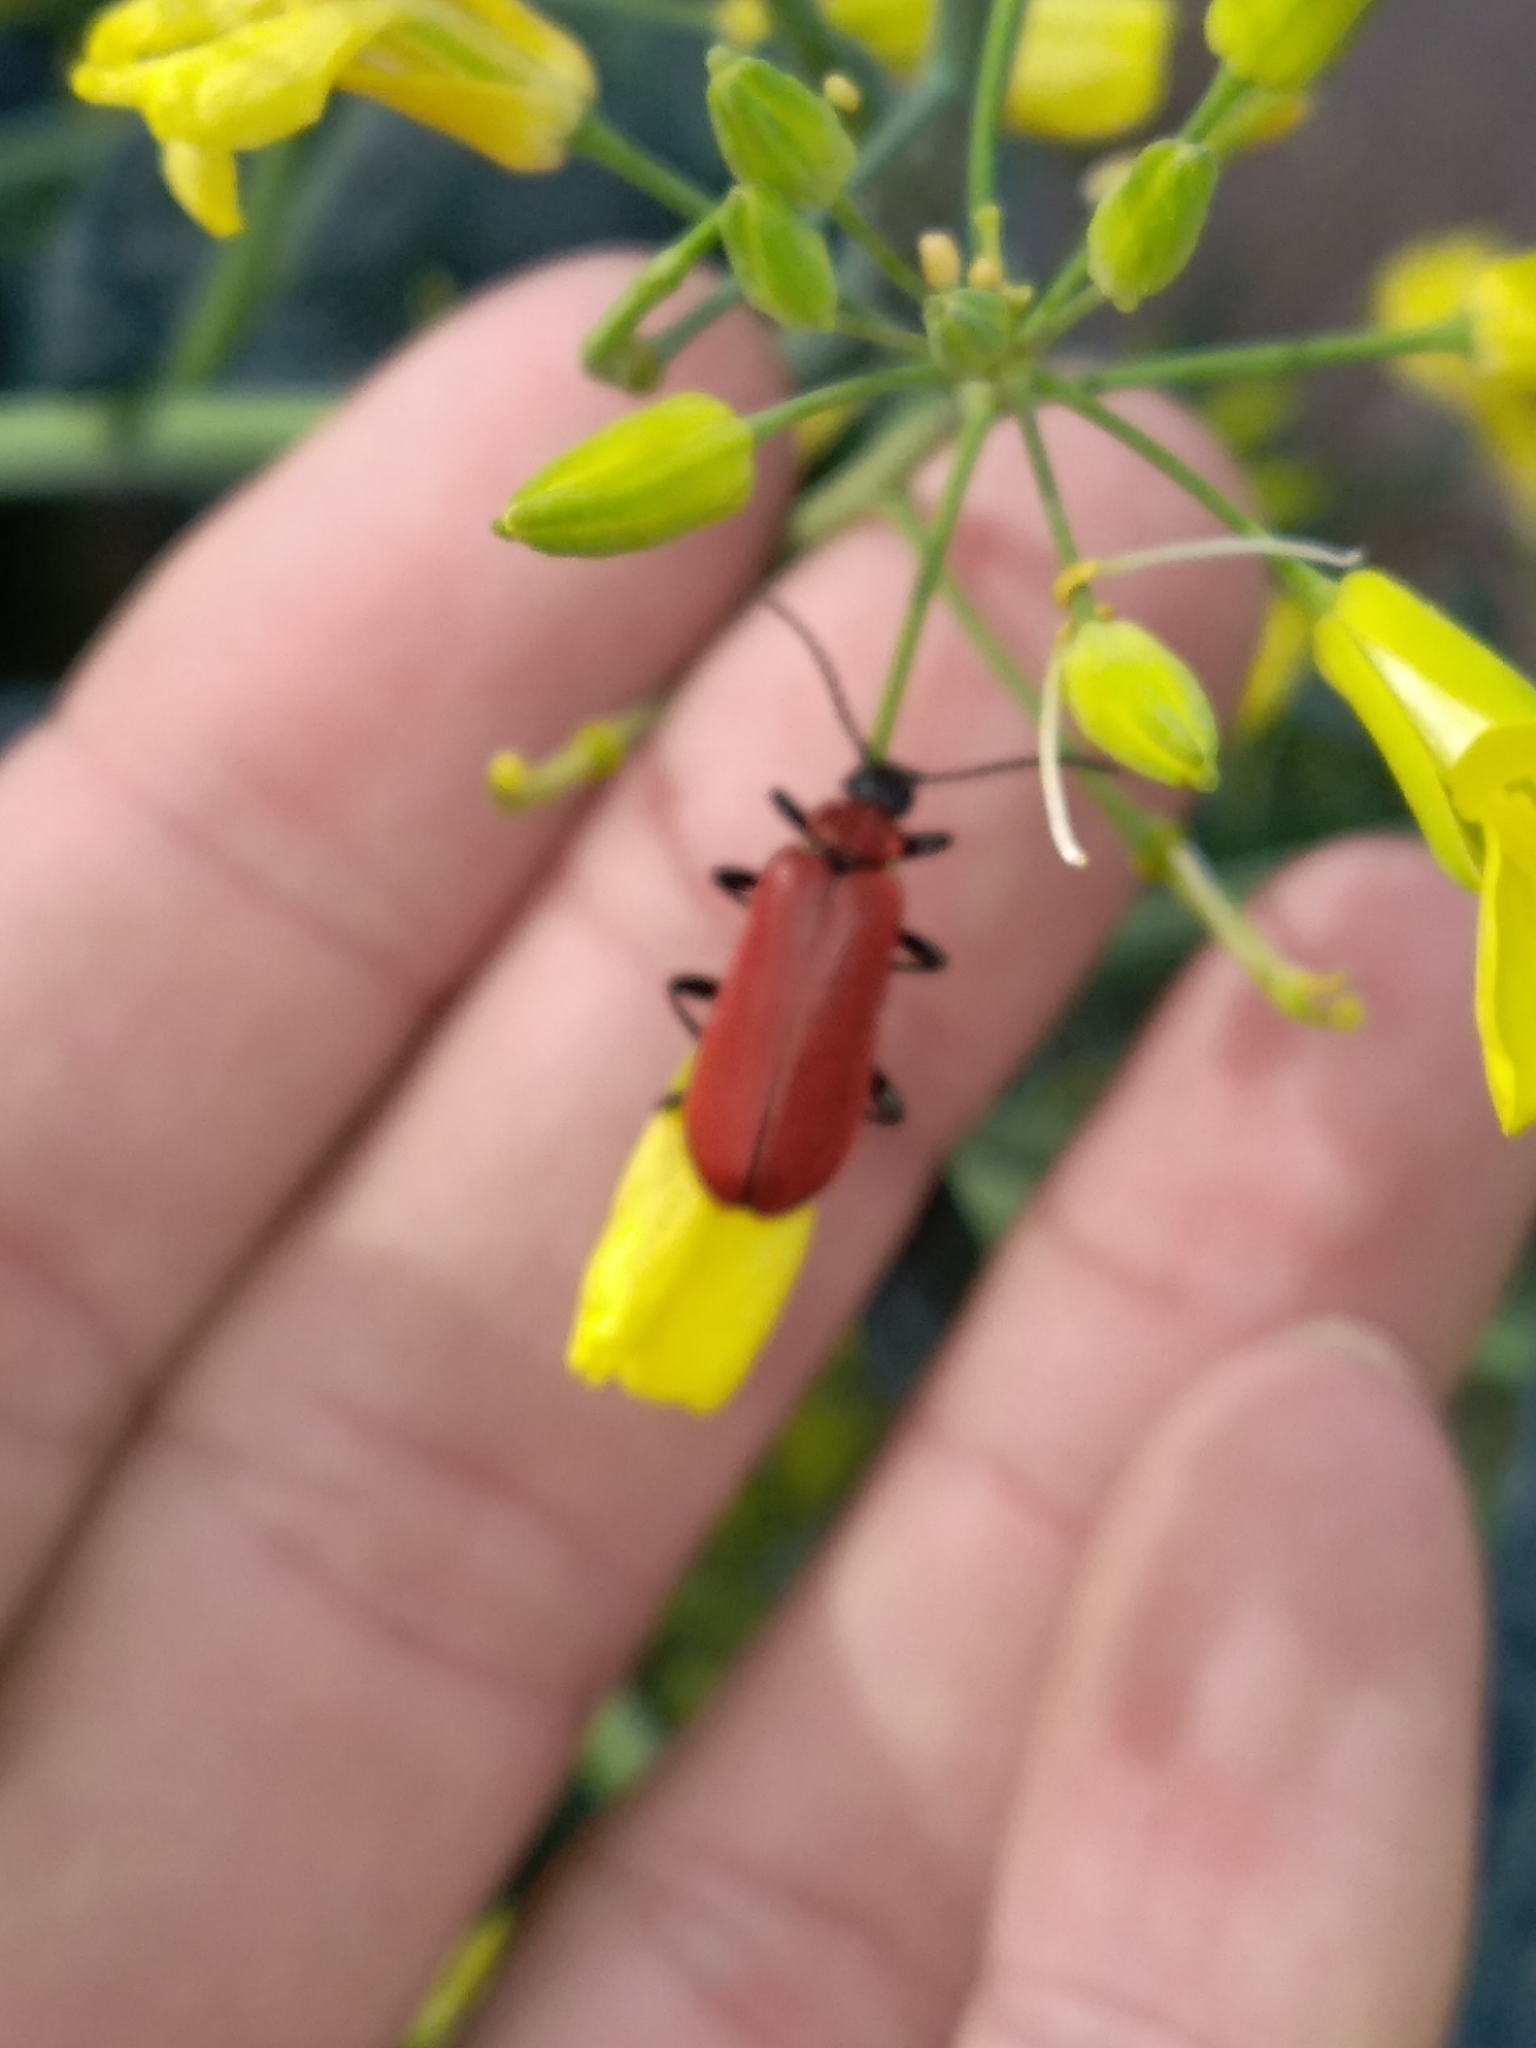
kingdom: Animalia
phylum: Arthropoda
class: Insecta
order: Coleoptera
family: Pyrochroidae
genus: Pyrochroa
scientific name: Pyrochroa coccinea
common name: Black-headed cardinal beetle
